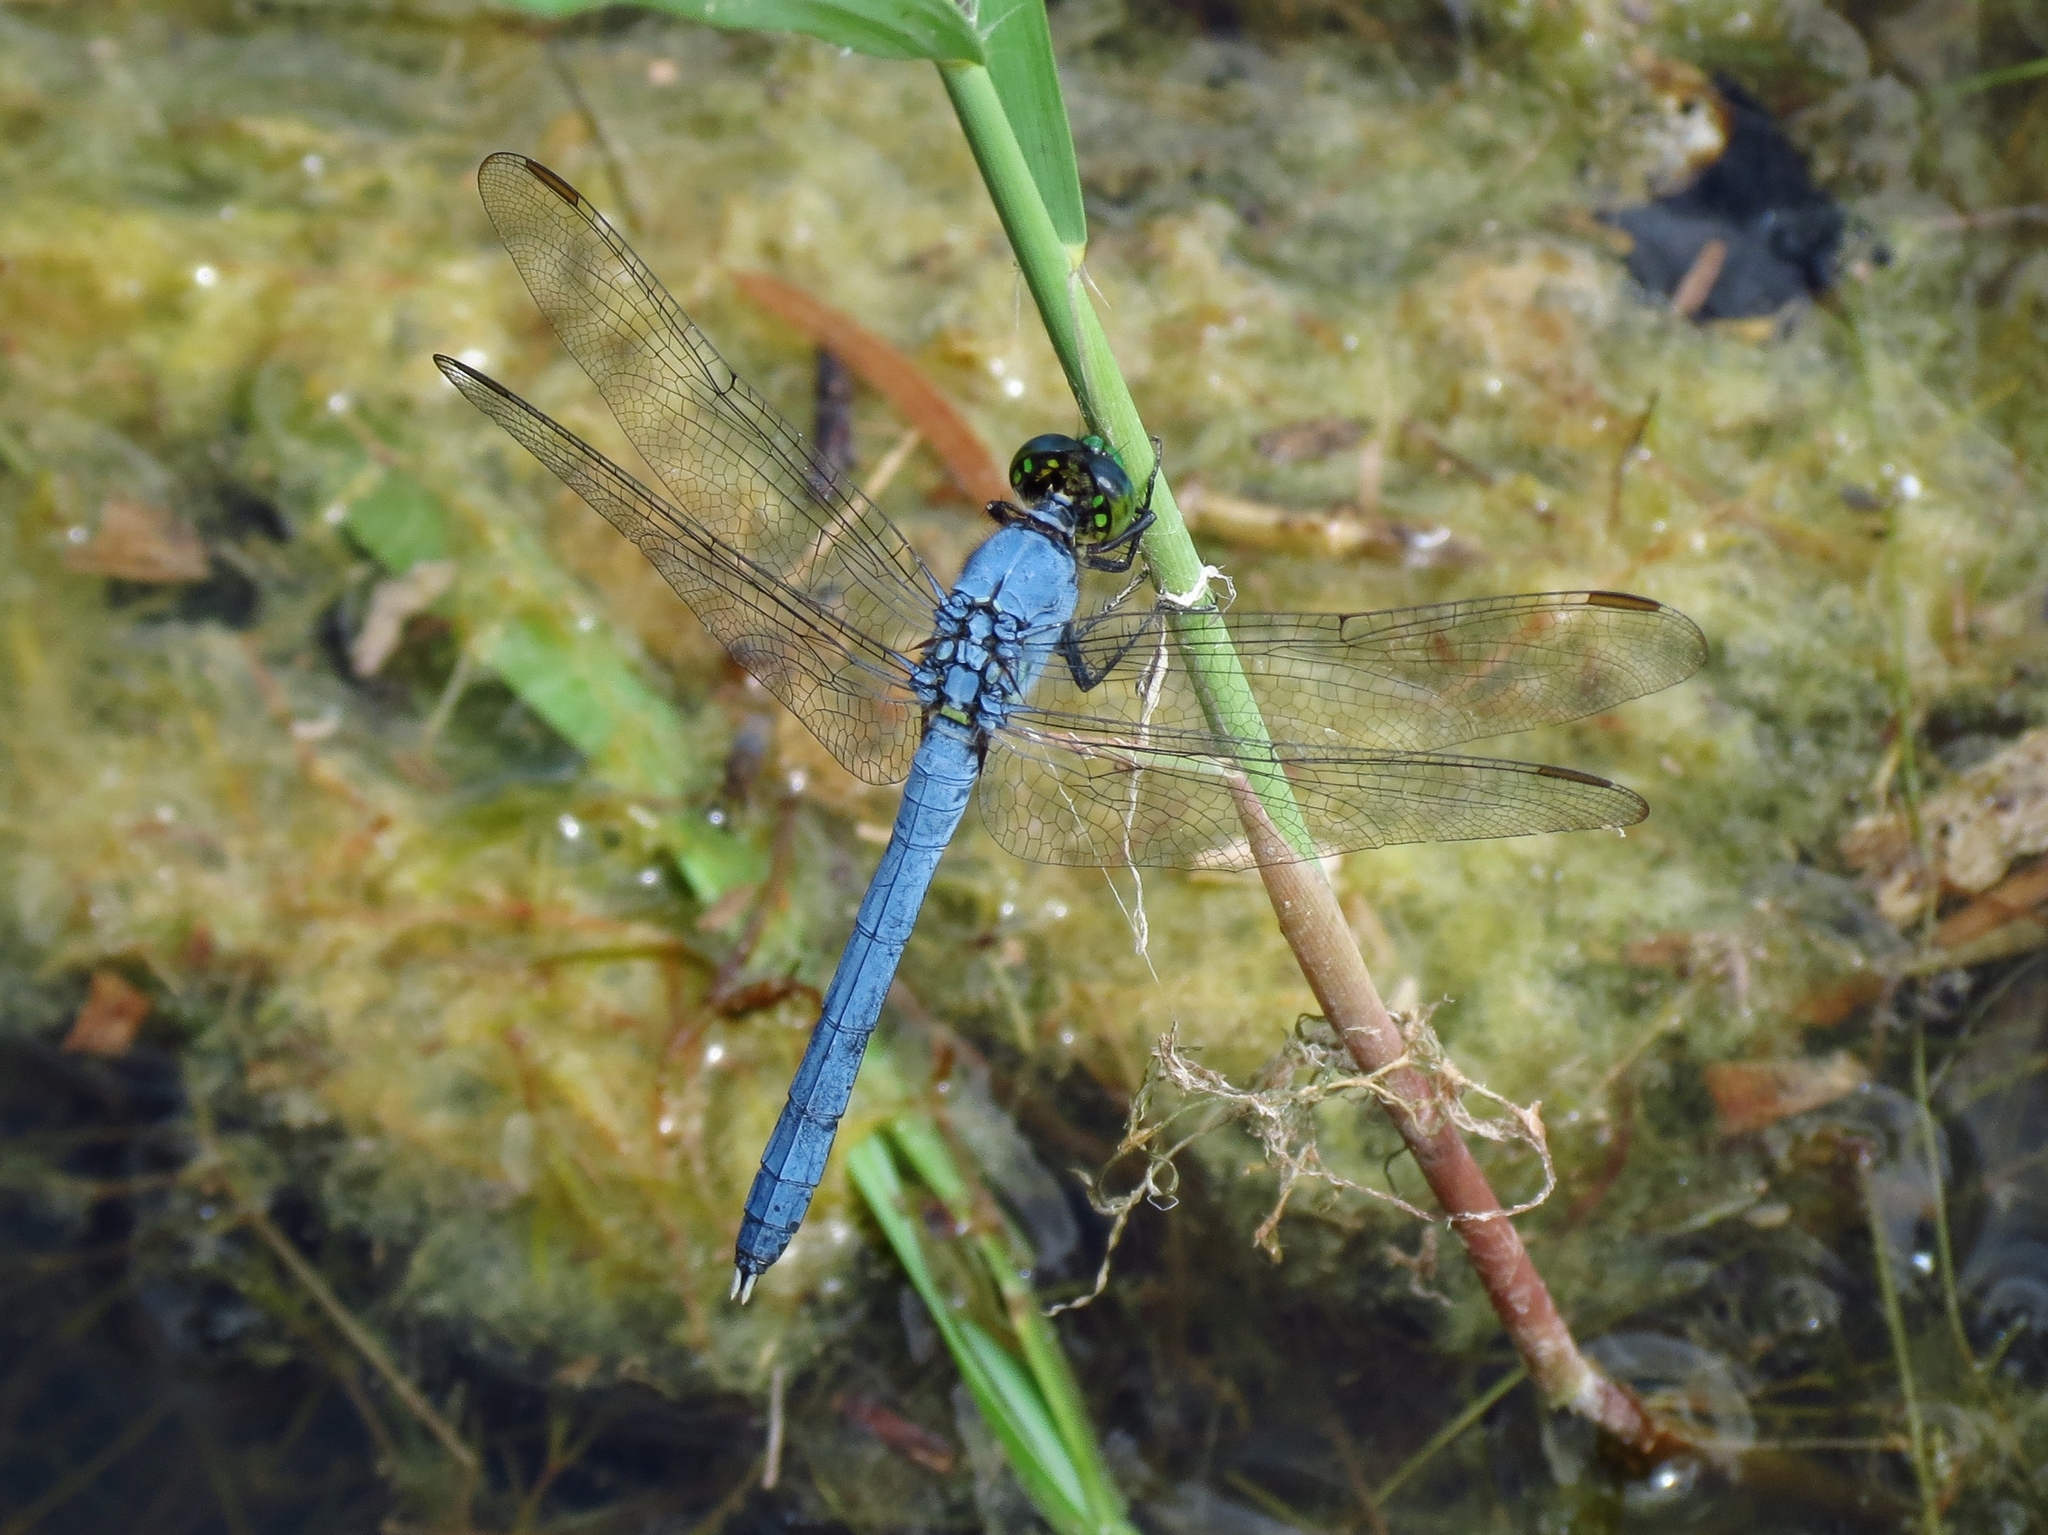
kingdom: Animalia
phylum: Arthropoda
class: Insecta
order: Odonata
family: Libellulidae
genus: Erythemis
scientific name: Erythemis simplicicollis
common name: Eastern pondhawk
